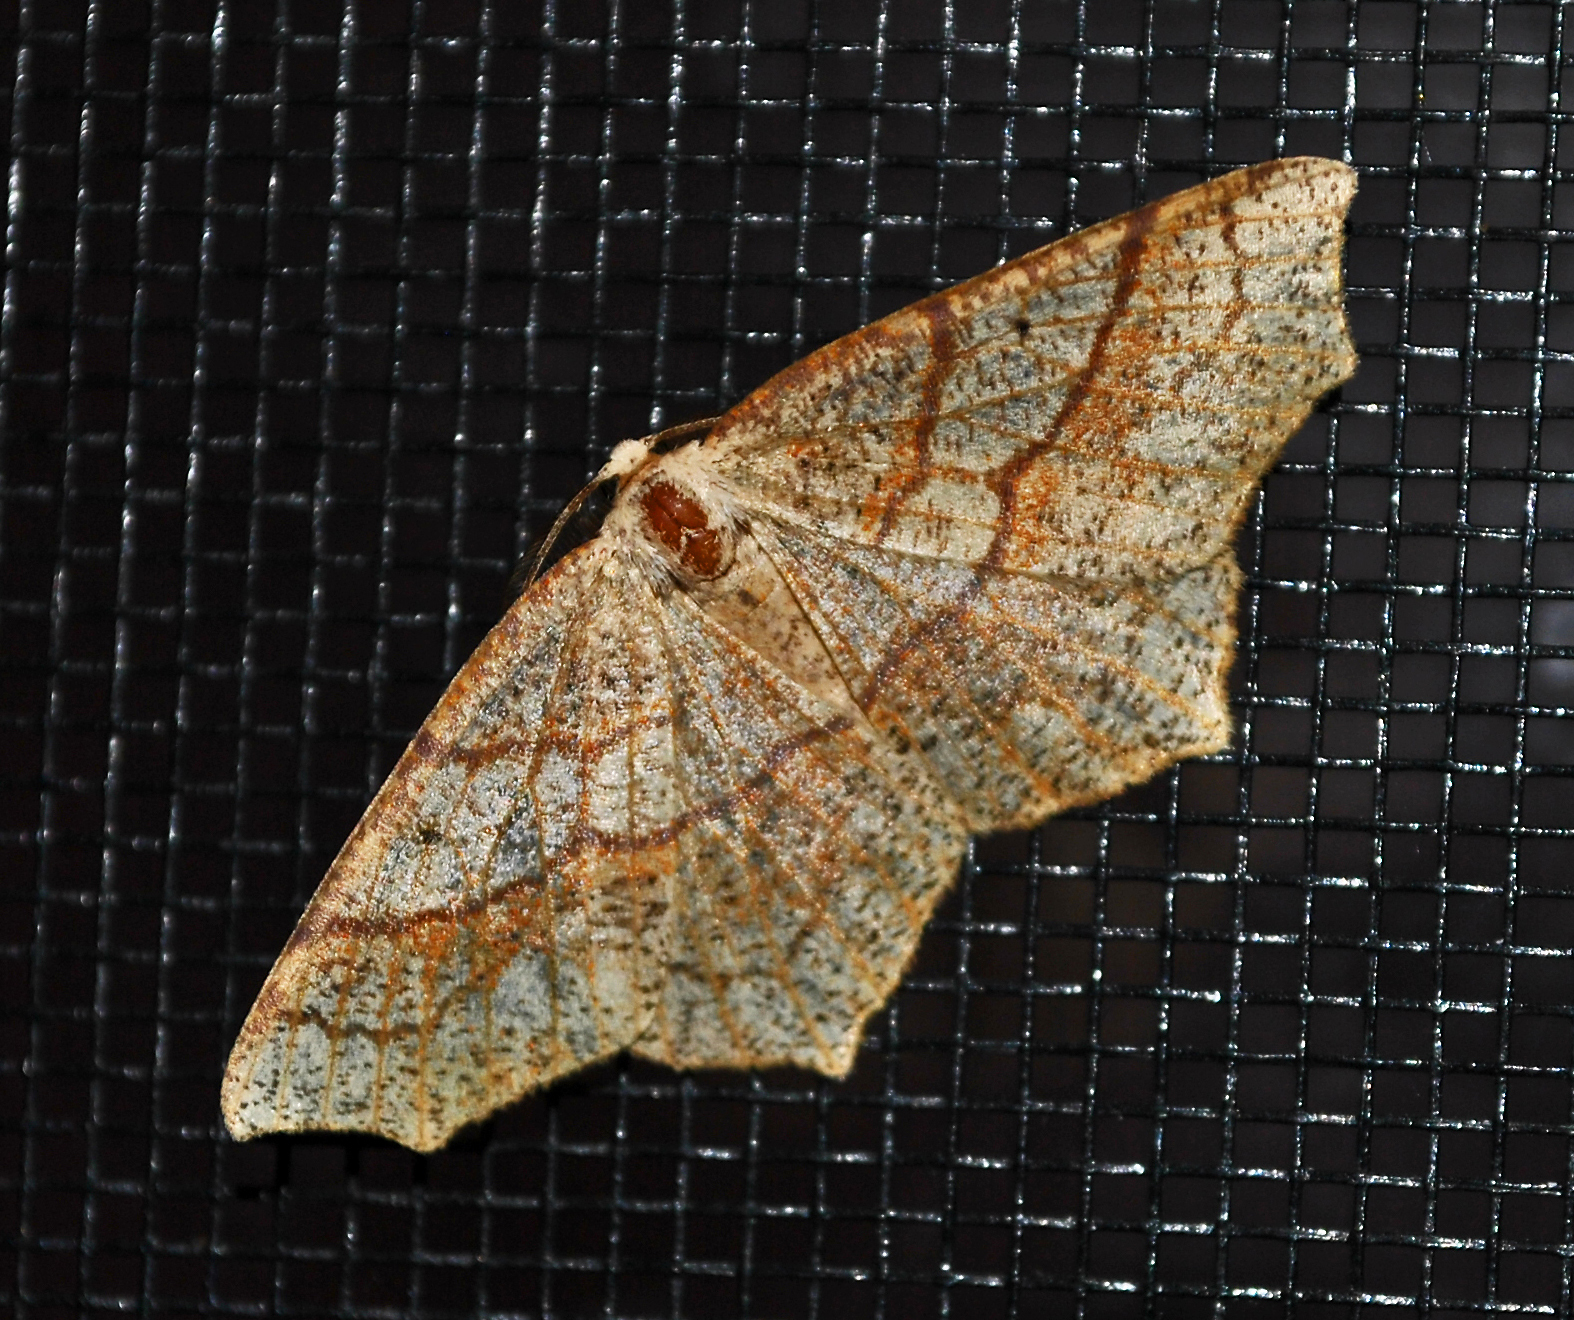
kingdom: Animalia
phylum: Arthropoda
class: Insecta
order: Lepidoptera
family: Geometridae
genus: Besma
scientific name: Besma quercivoraria
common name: Oak besma
